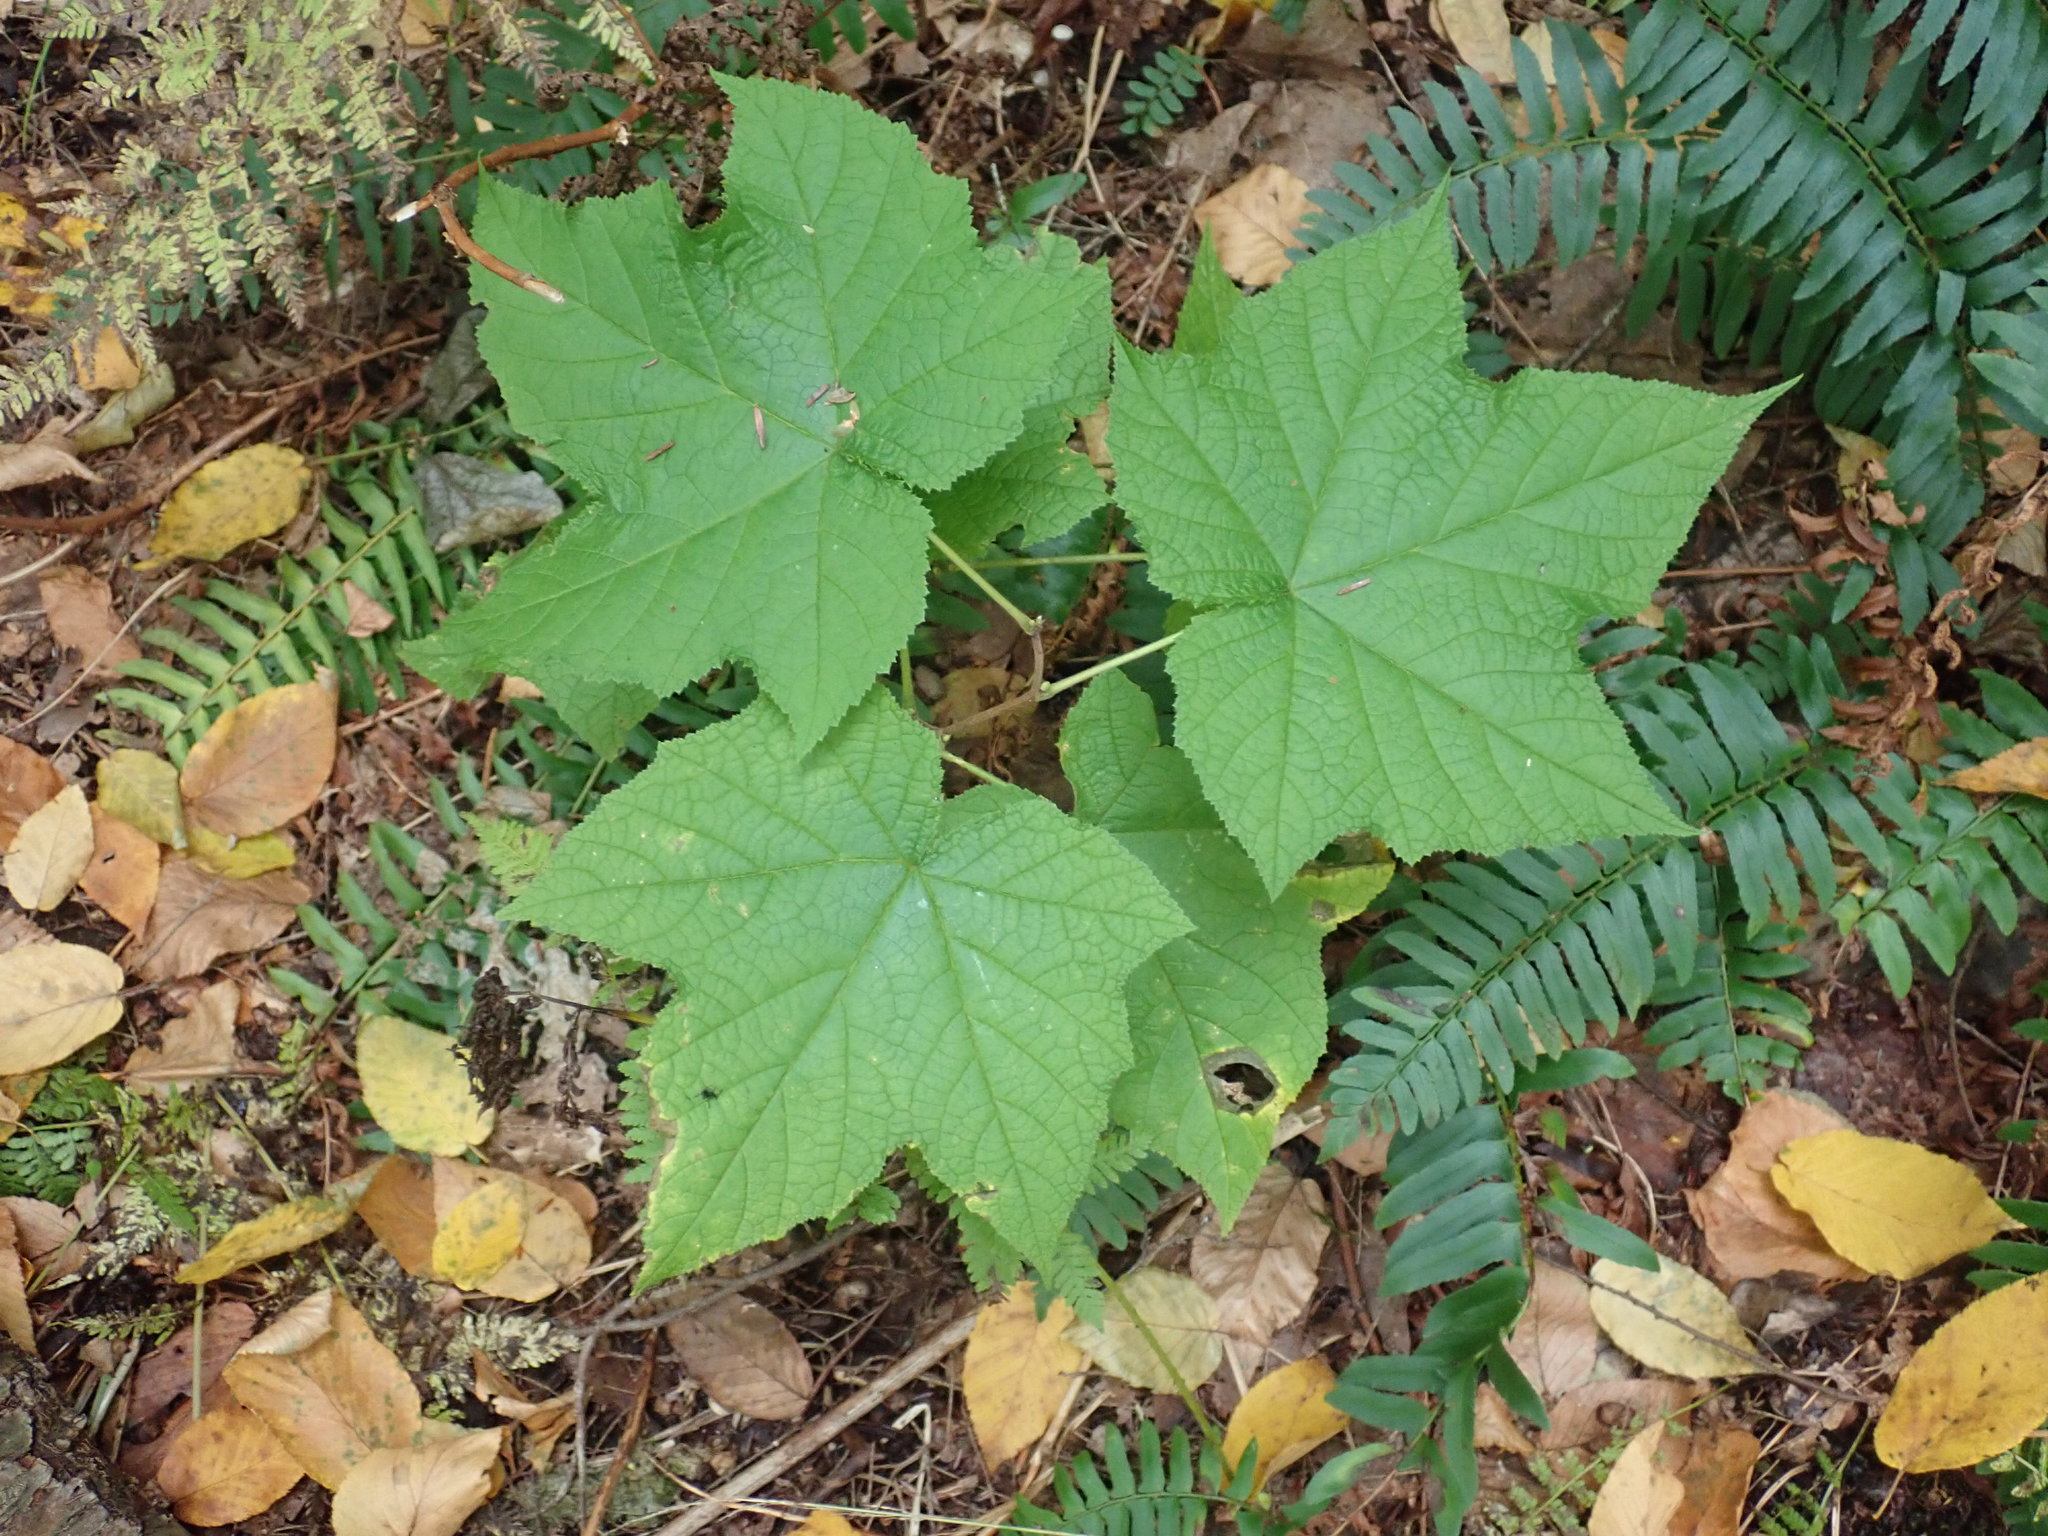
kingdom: Plantae
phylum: Tracheophyta
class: Magnoliopsida
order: Rosales
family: Rosaceae
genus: Rubus
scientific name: Rubus odoratus
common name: Purple-flowered raspberry
